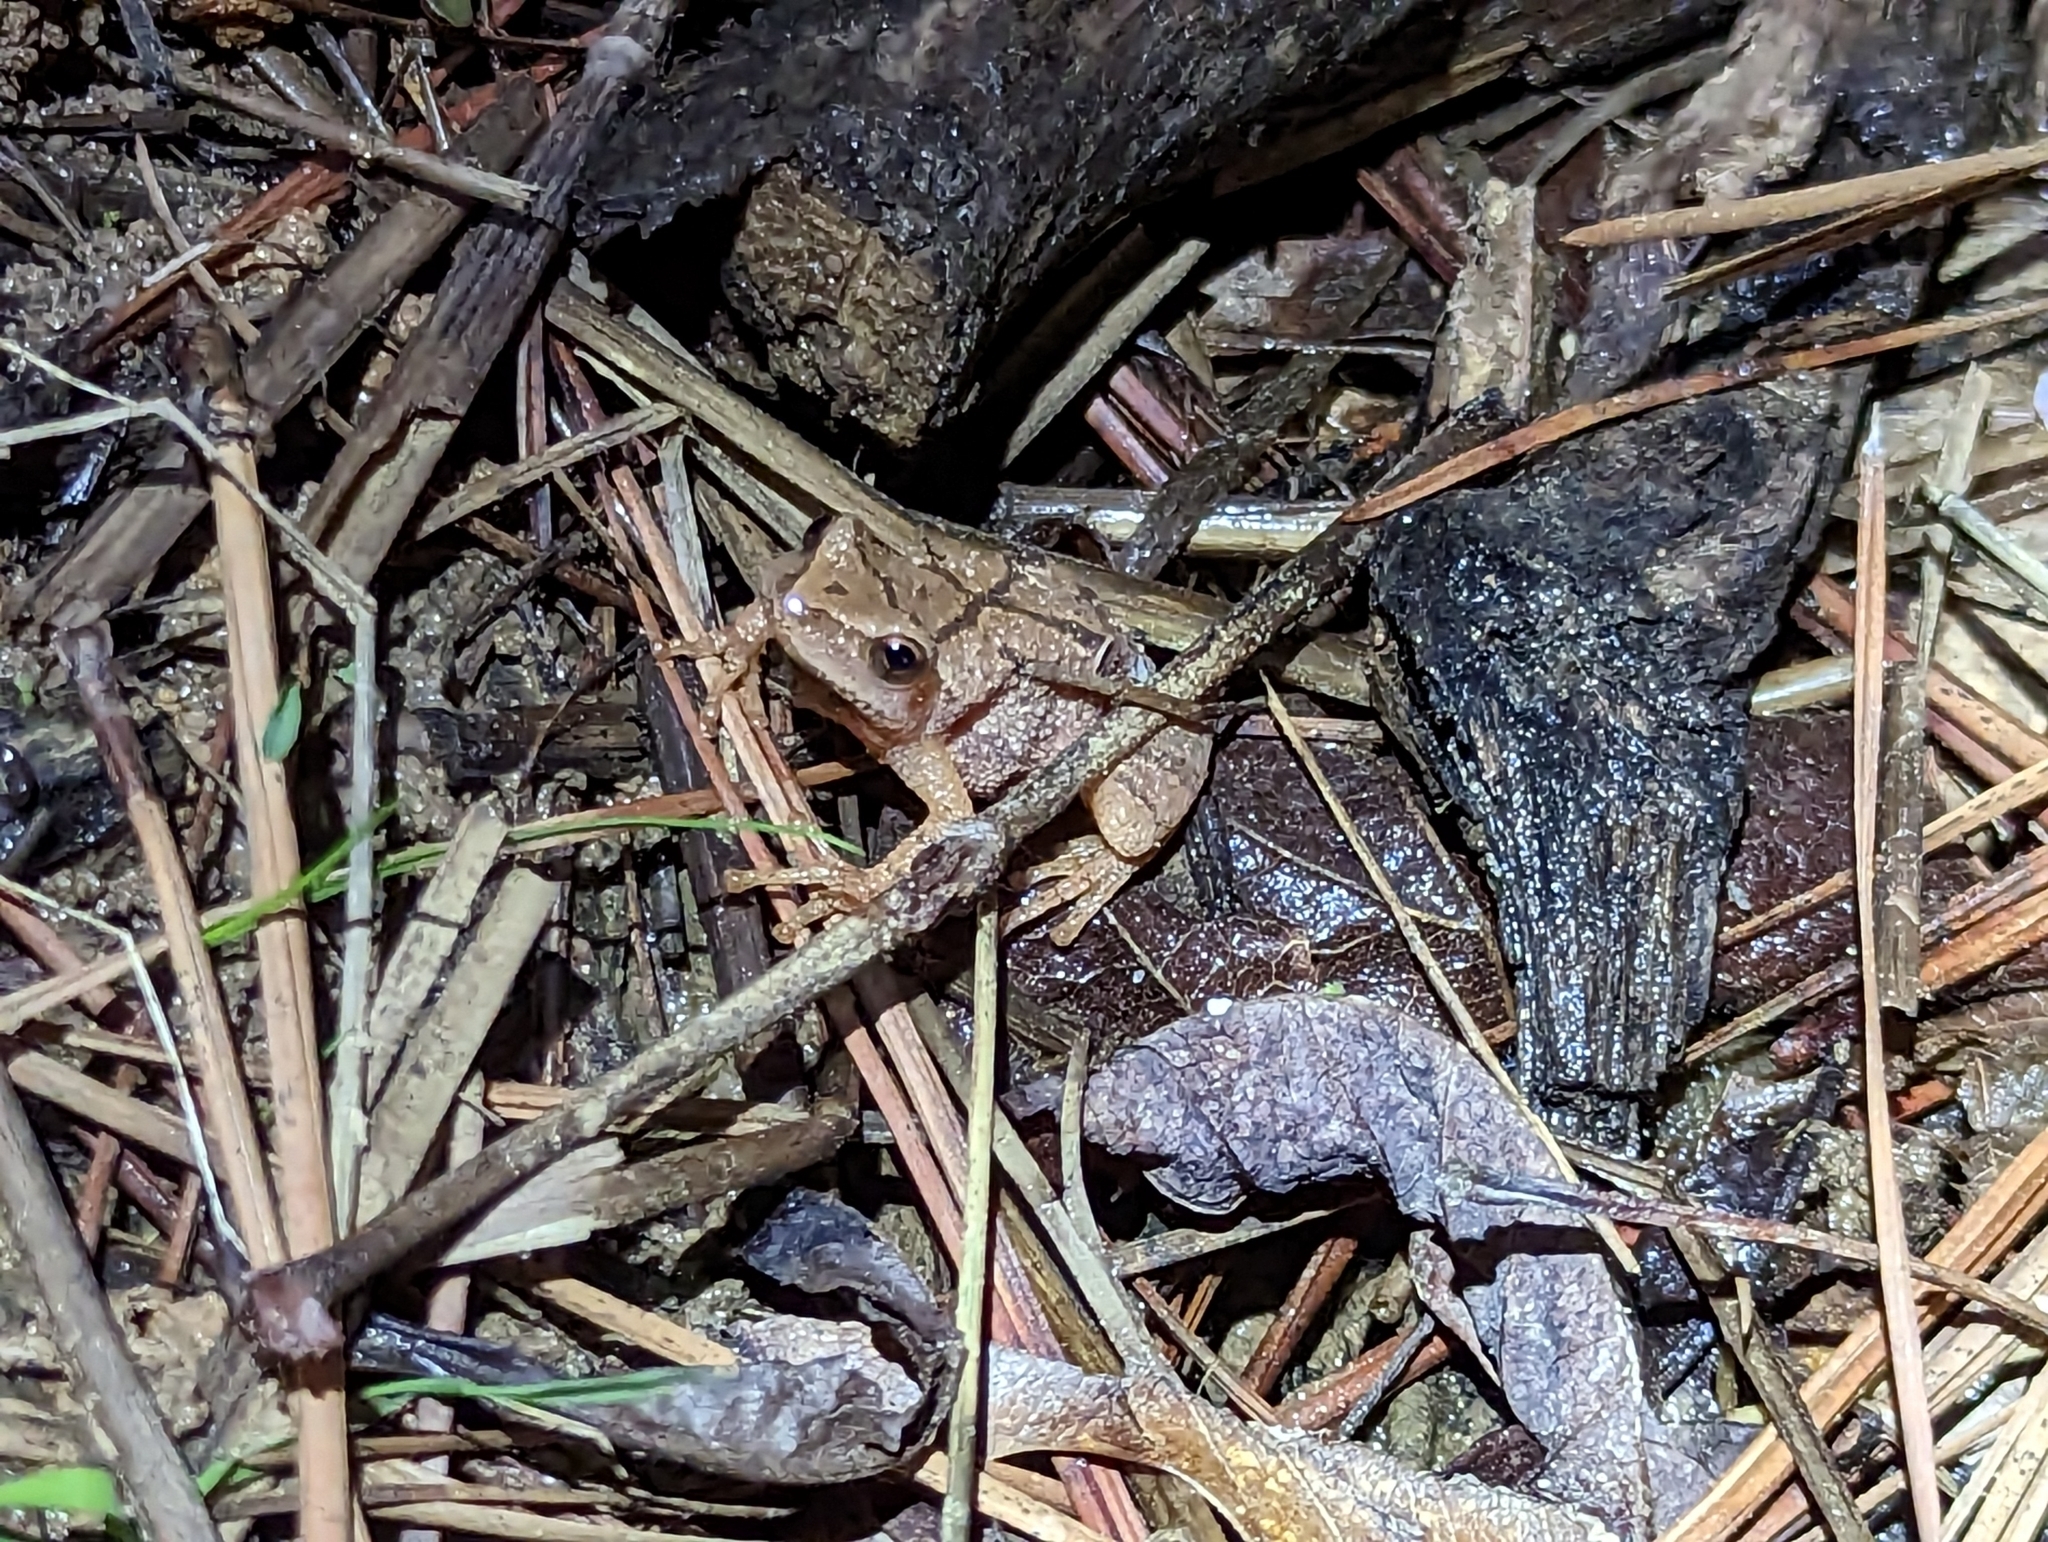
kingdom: Animalia
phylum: Chordata
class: Amphibia
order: Anura
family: Hylidae
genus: Pseudacris
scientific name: Pseudacris crucifer
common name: Spring peeper
